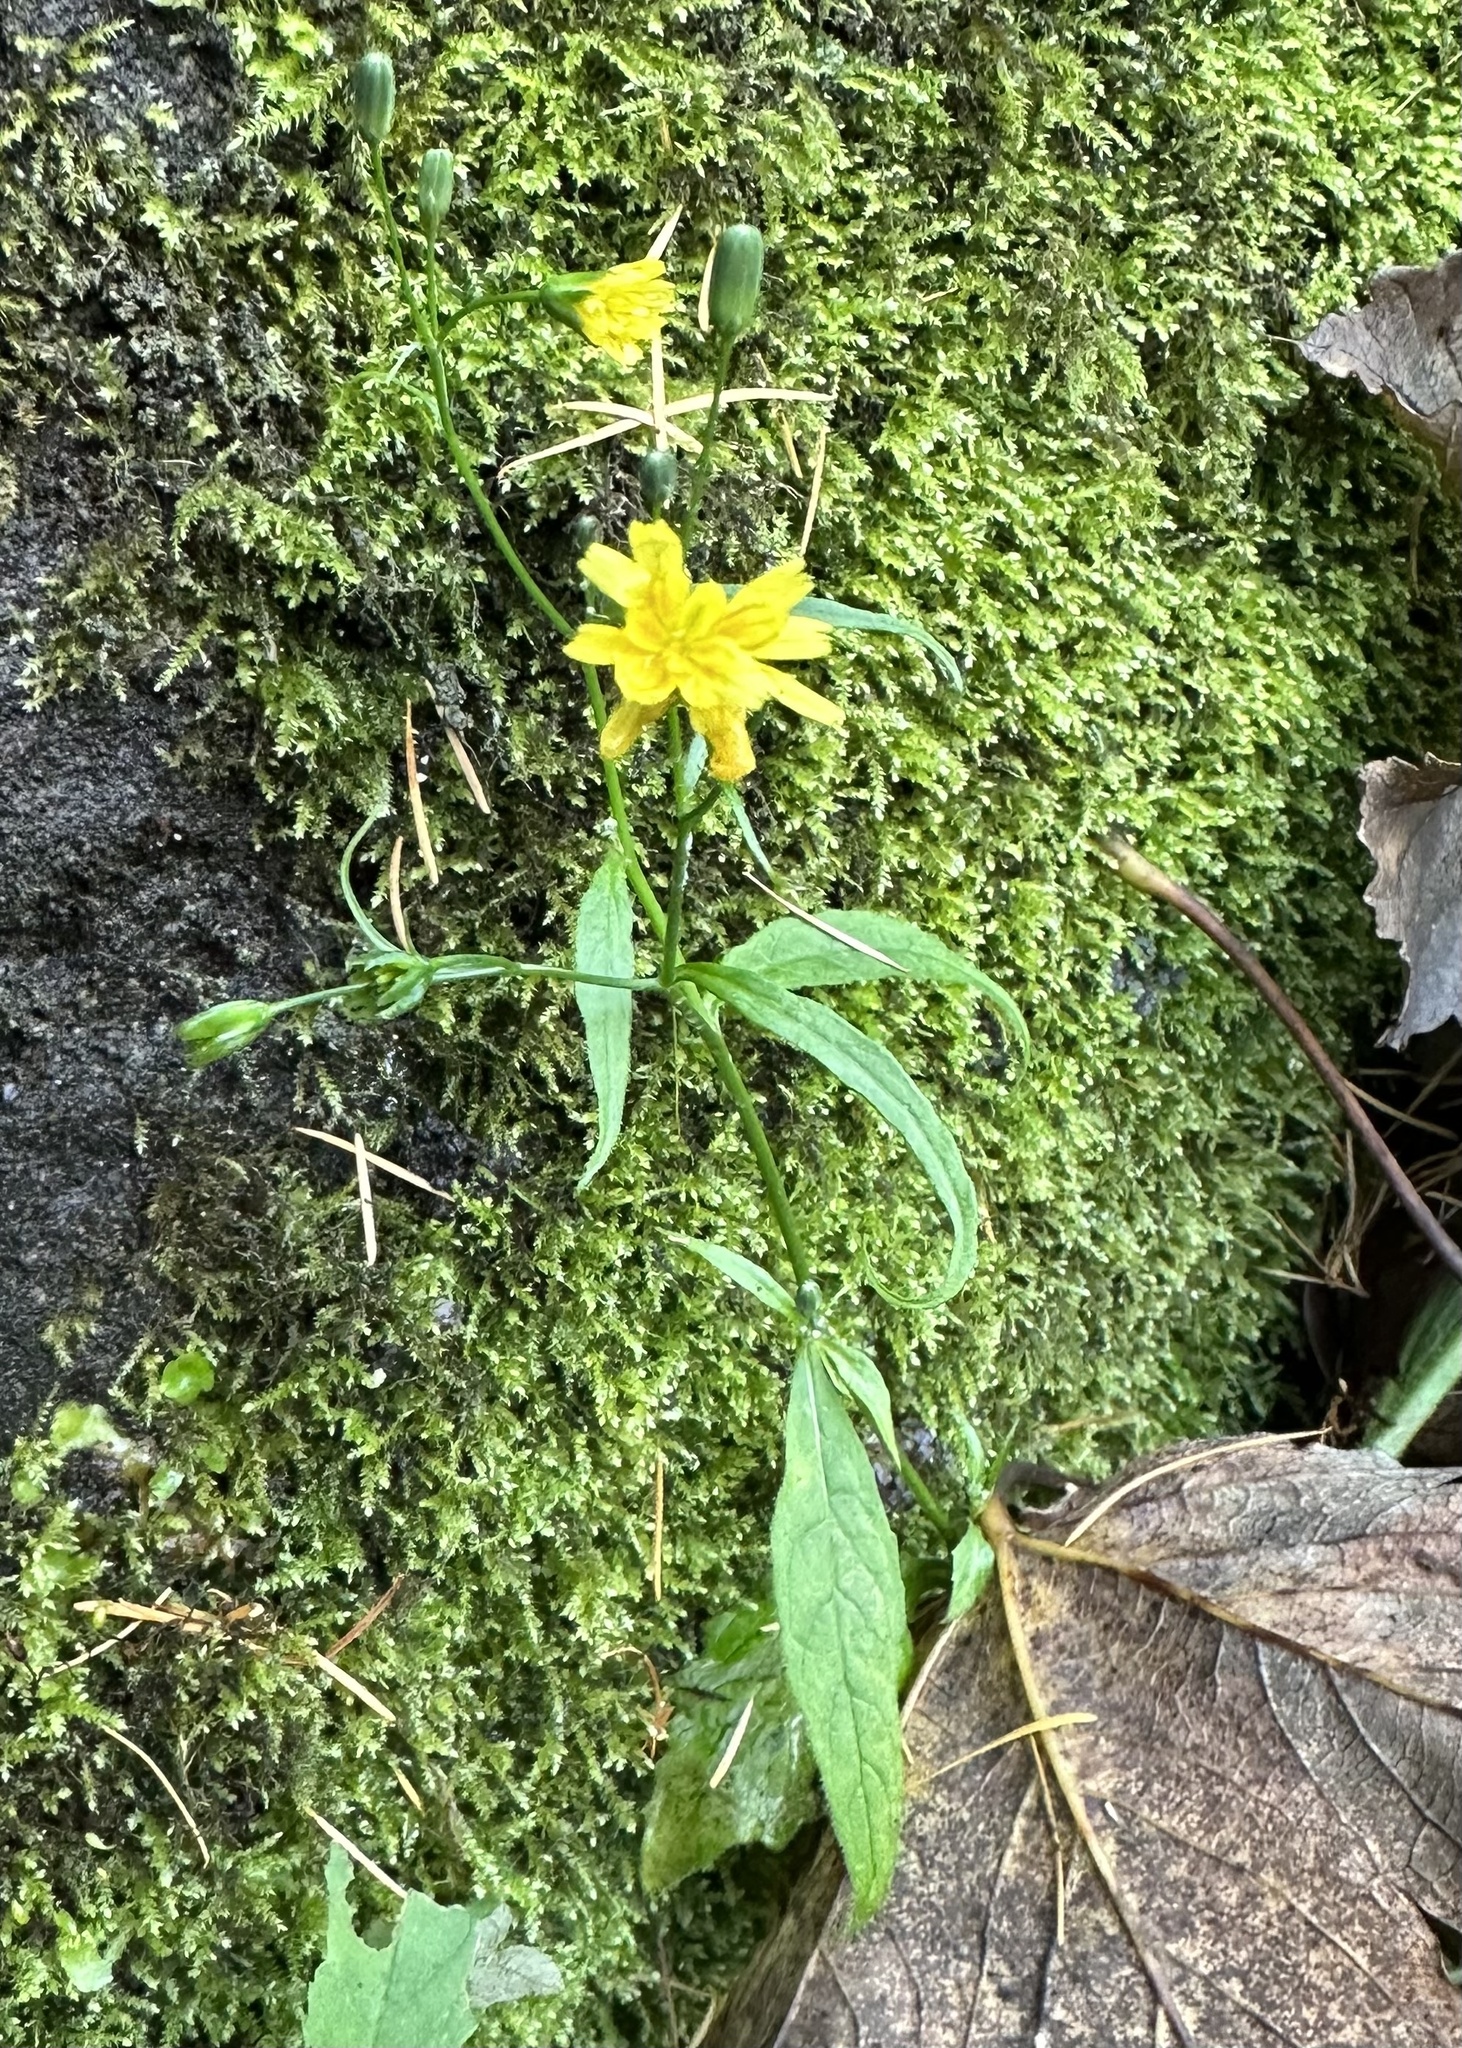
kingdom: Plantae
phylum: Tracheophyta
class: Magnoliopsida
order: Asterales
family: Asteraceae
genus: Lapsana
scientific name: Lapsana communis
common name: Nipplewort
